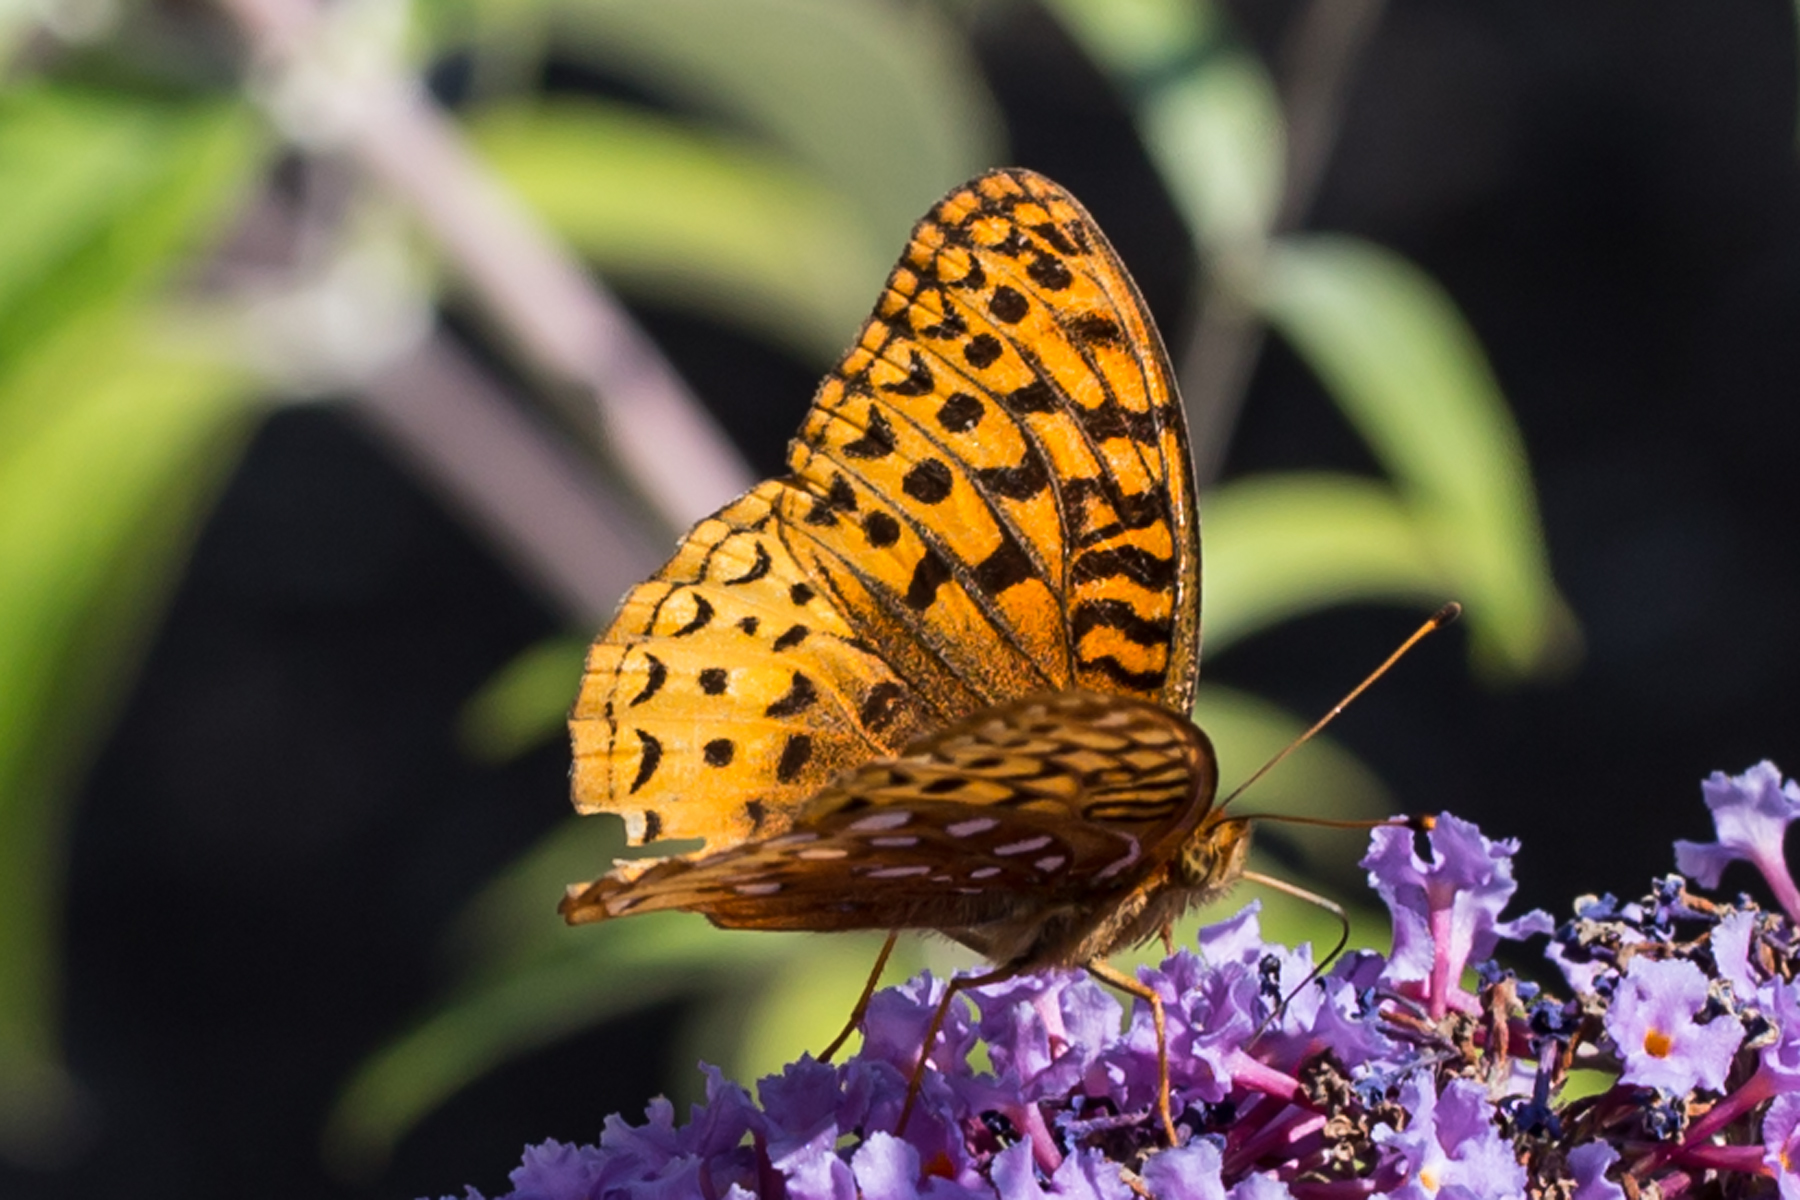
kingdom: Animalia
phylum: Arthropoda
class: Insecta
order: Lepidoptera
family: Nymphalidae
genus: Speyeria
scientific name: Speyeria cybele
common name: Great spangled fritillary
